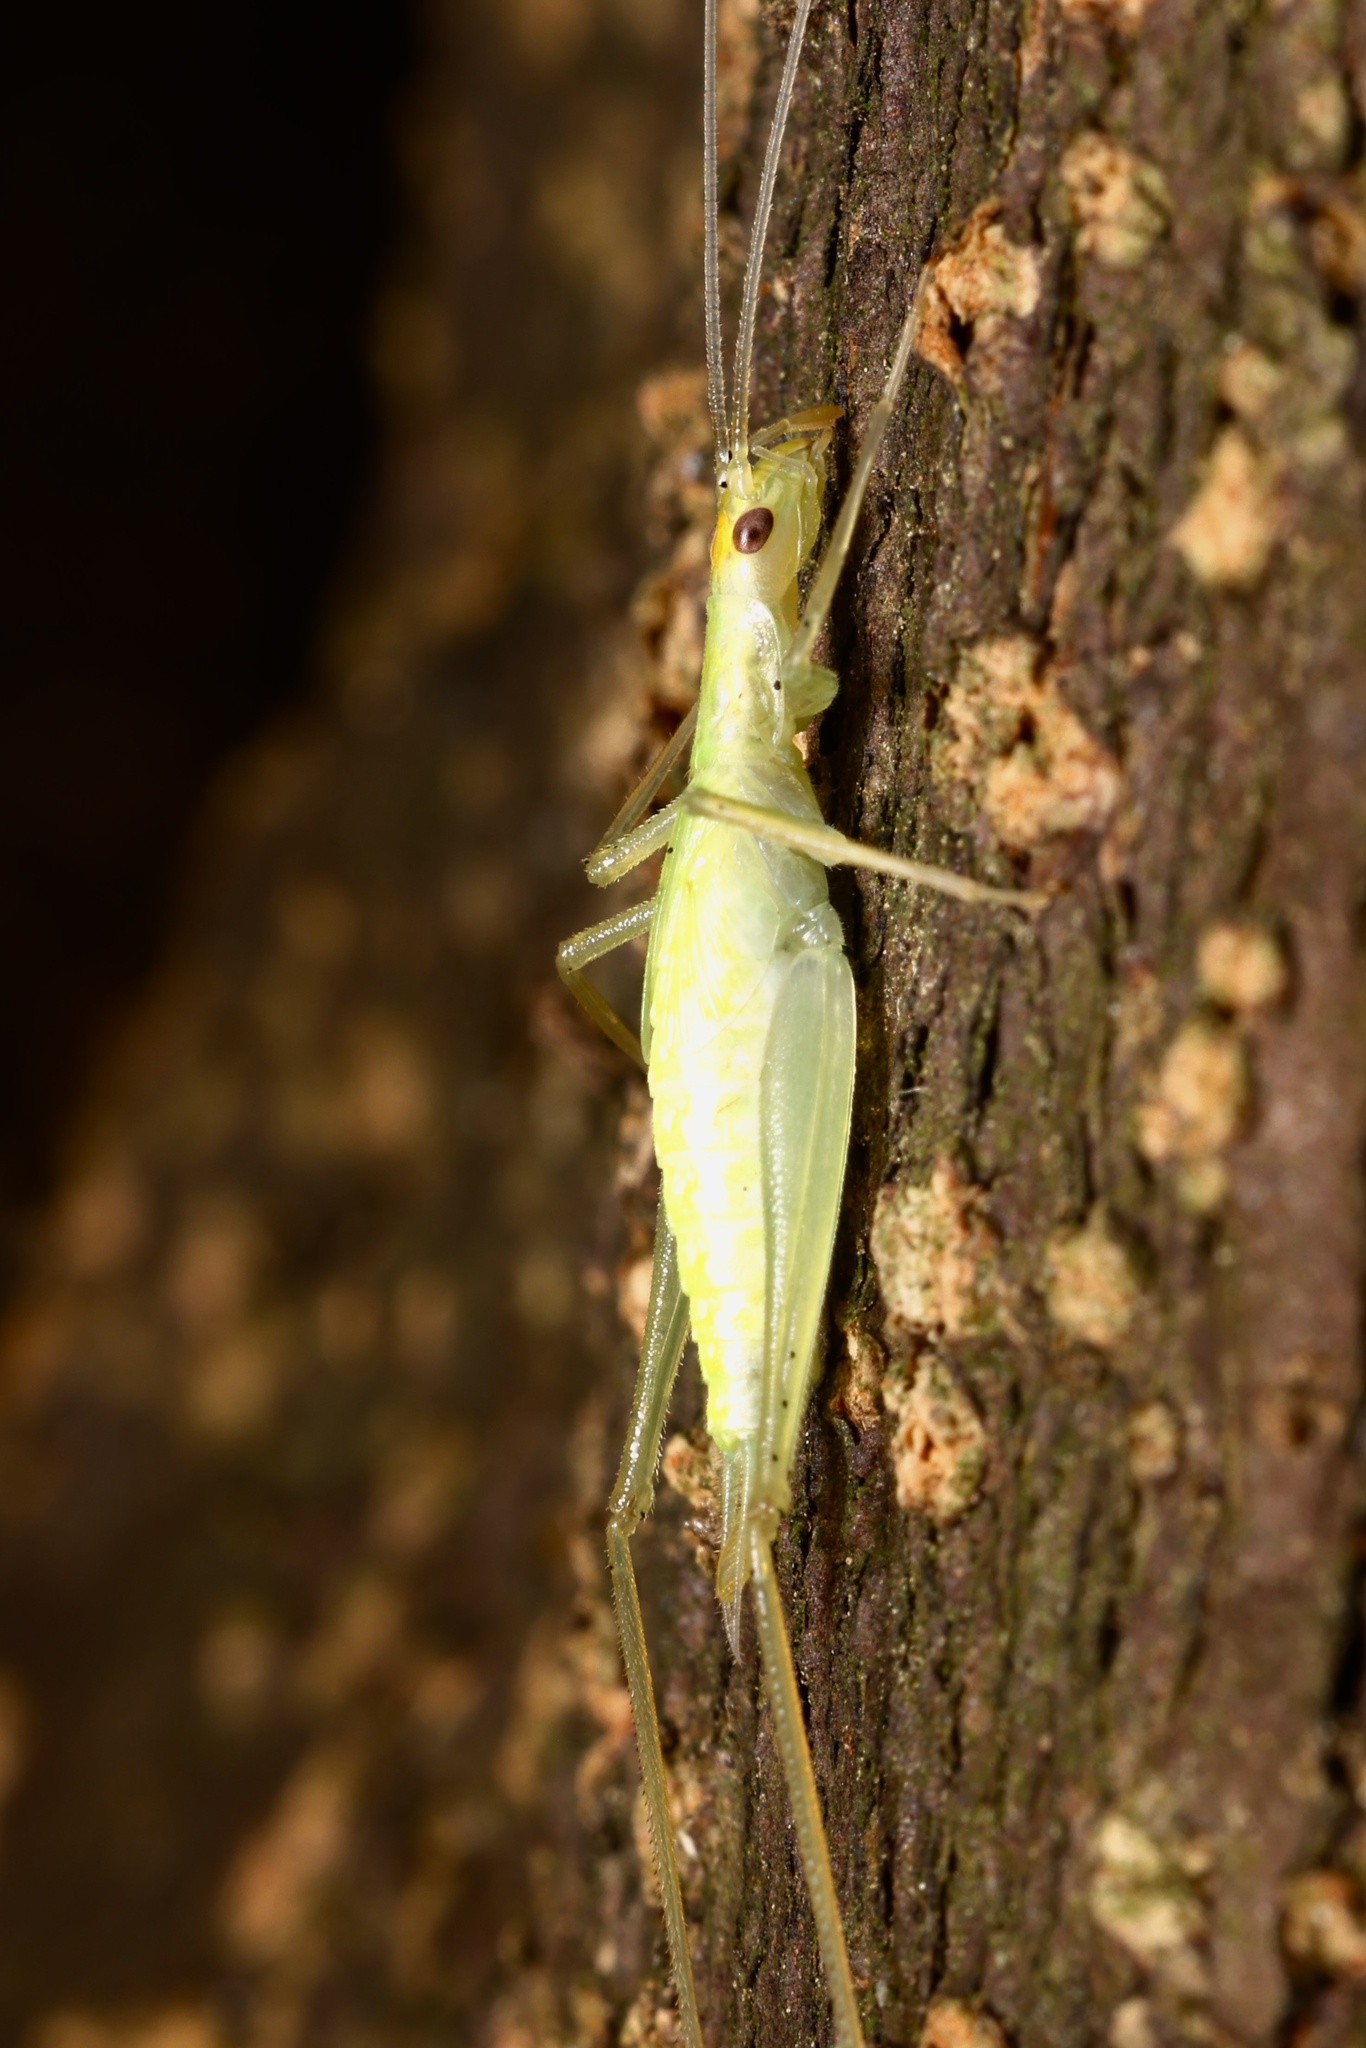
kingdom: Animalia
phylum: Arthropoda
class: Insecta
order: Orthoptera
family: Gryllidae
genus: Oecanthus
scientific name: Oecanthus niveus
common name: Narrow-winged tree cricket
